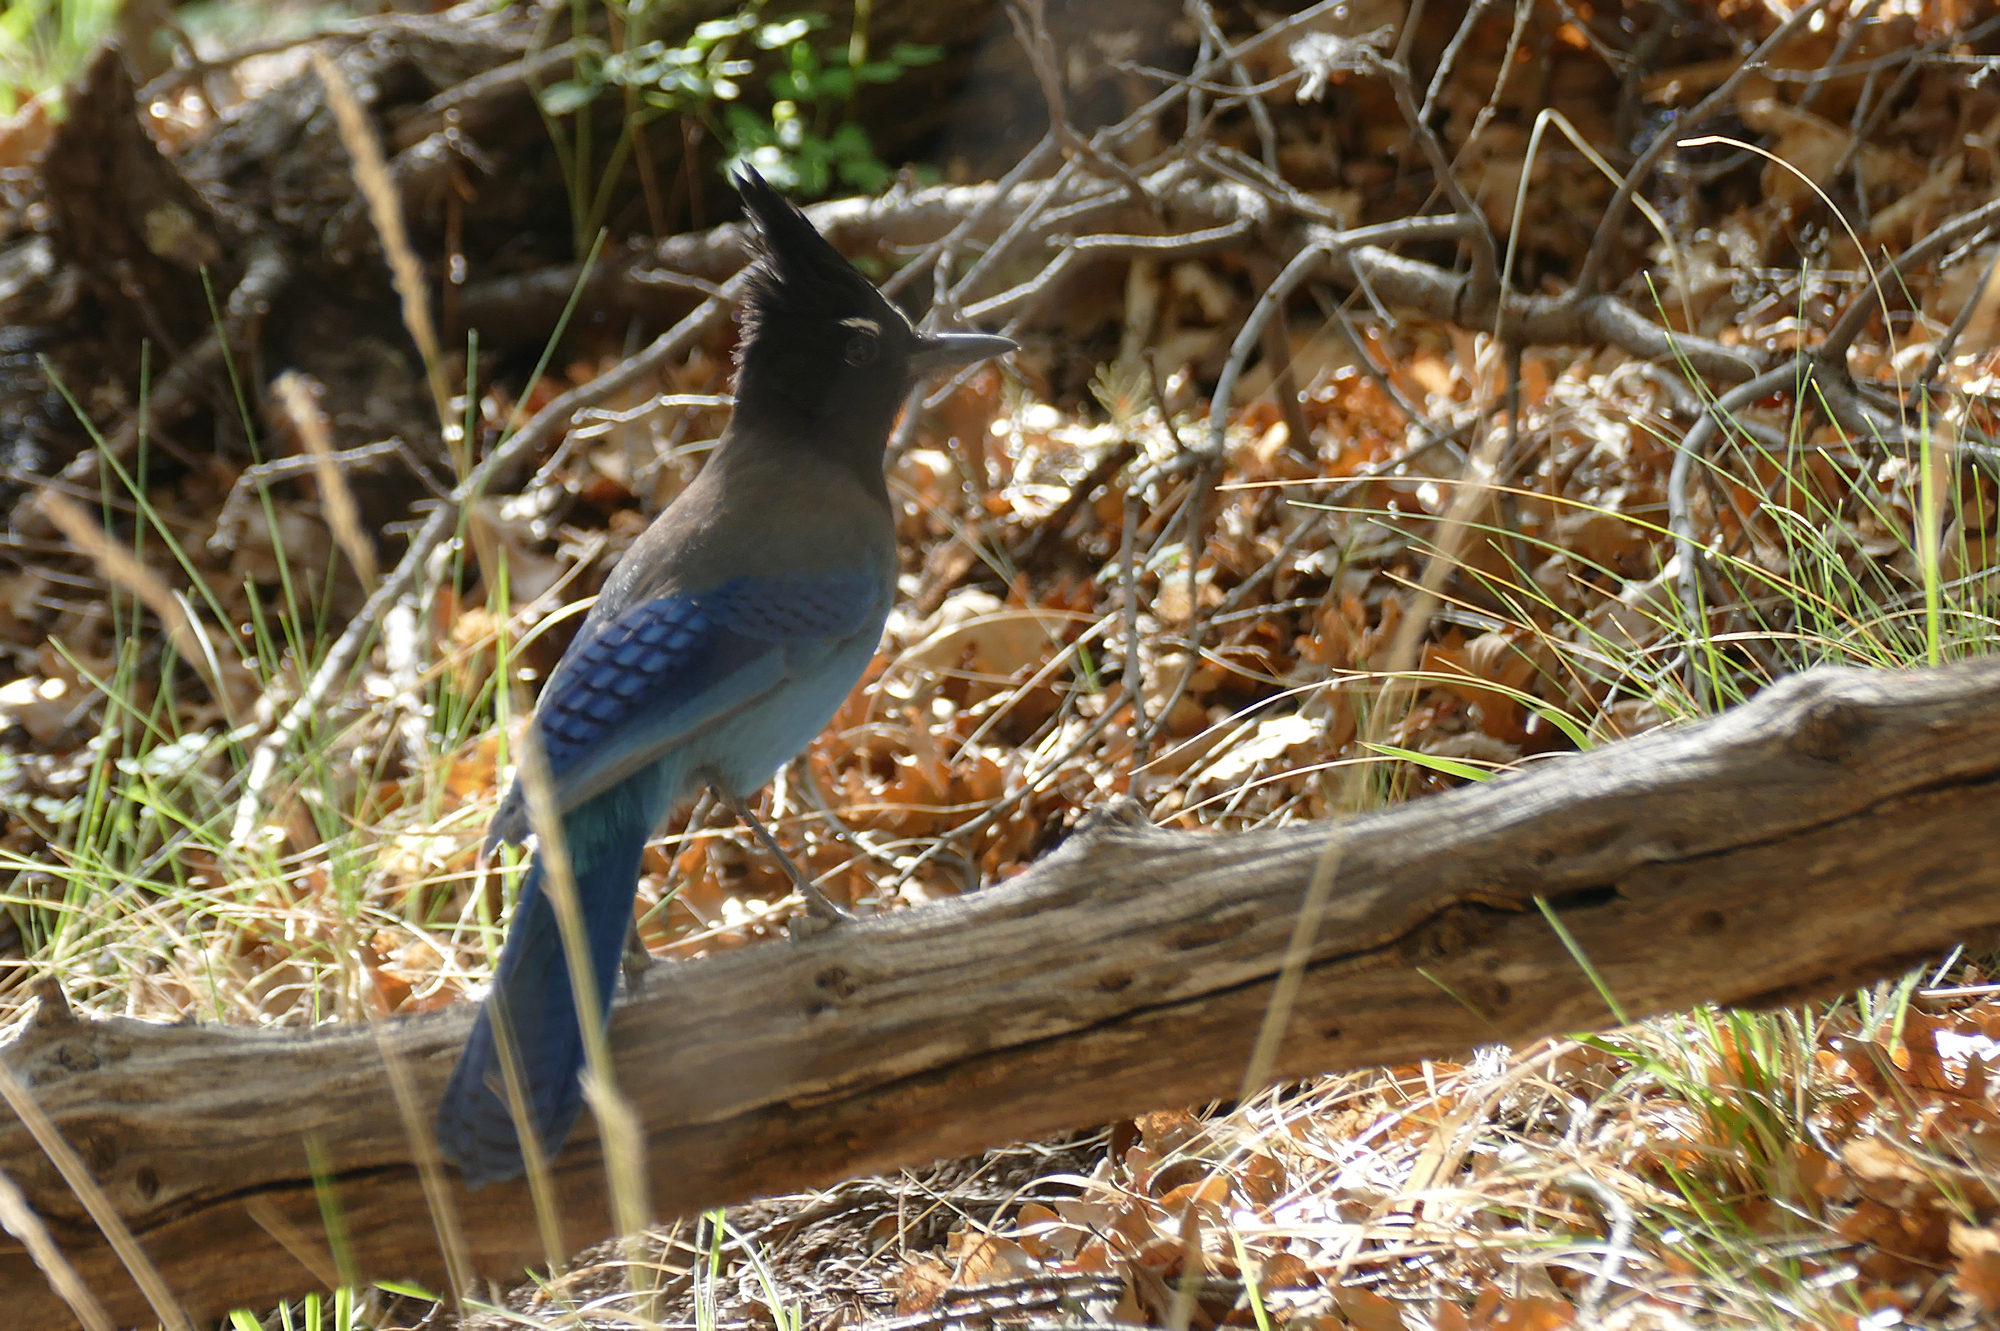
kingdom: Animalia
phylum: Chordata
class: Aves
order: Passeriformes
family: Corvidae
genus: Cyanocitta
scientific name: Cyanocitta stelleri
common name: Steller's jay
